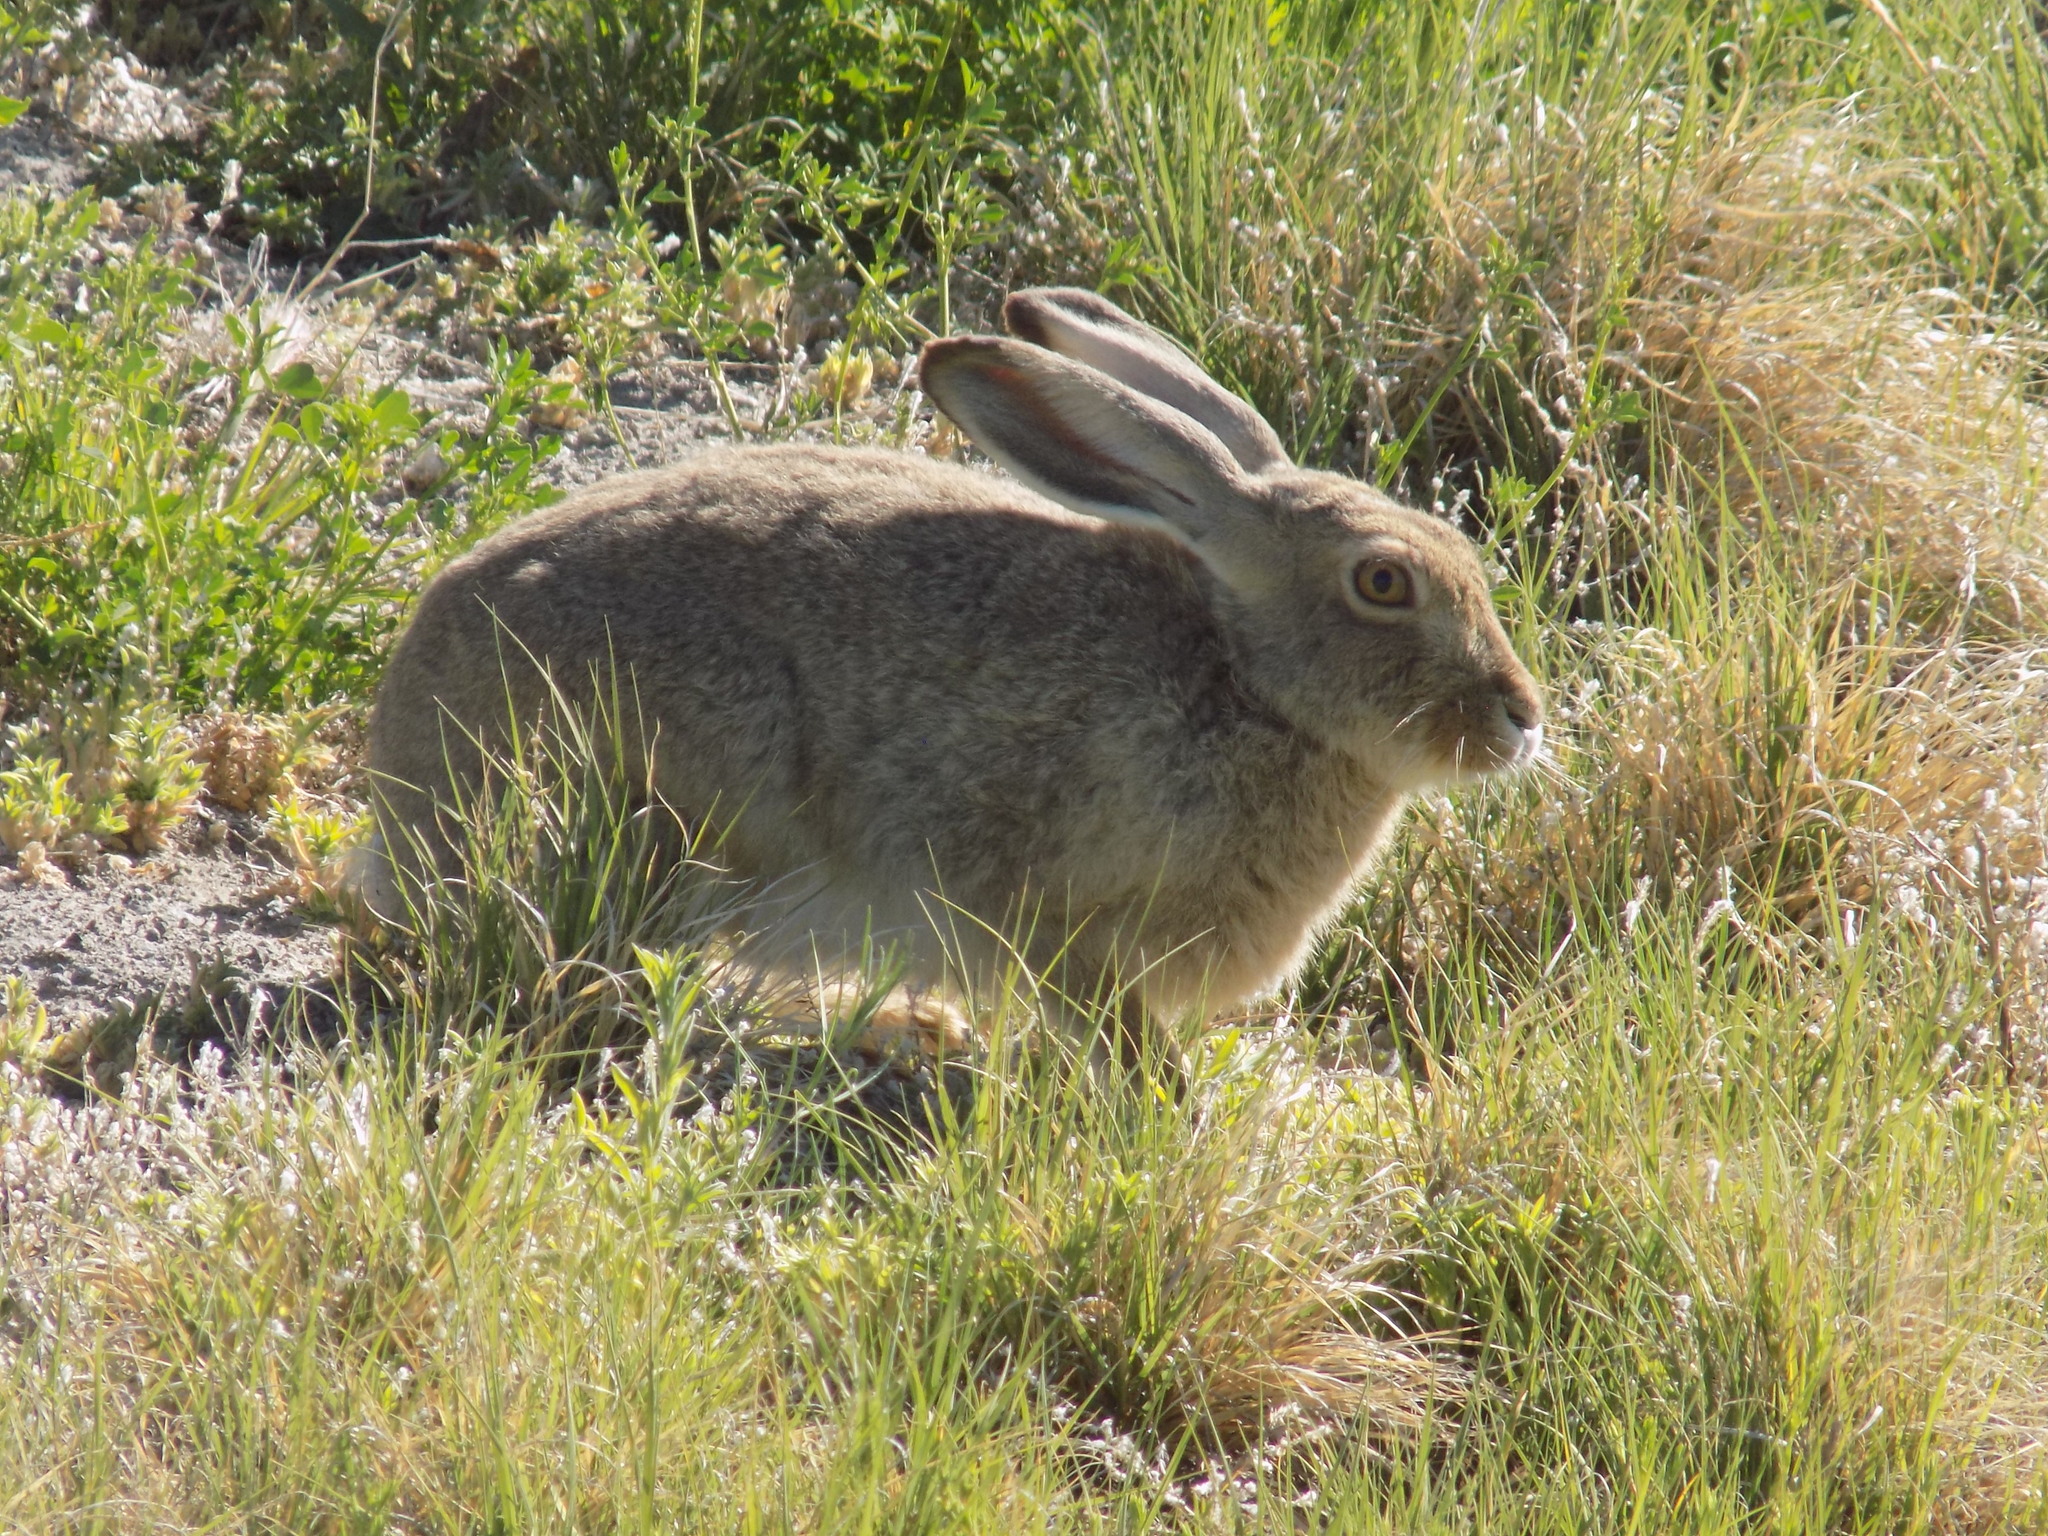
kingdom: Animalia
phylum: Chordata
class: Mammalia
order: Lagomorpha
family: Leporidae
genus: Lepus
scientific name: Lepus townsendii
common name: White-tailed jackrabbit
